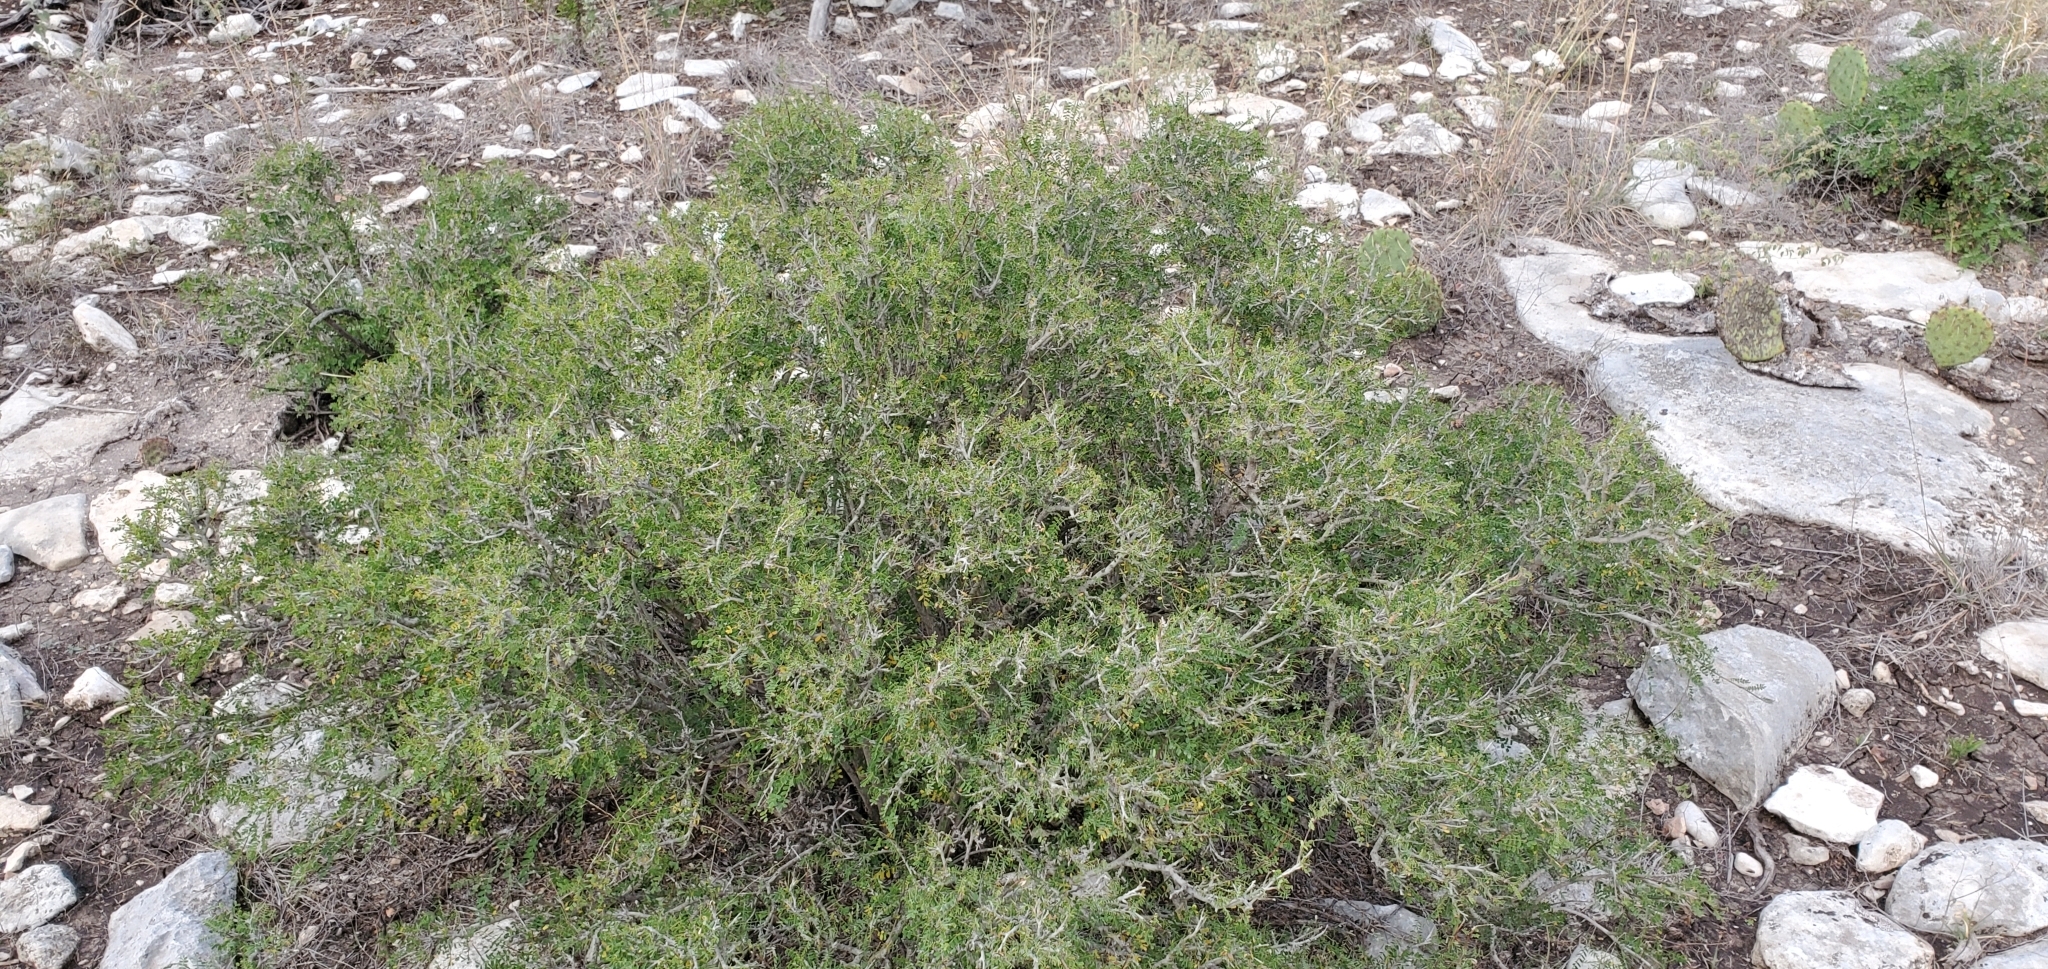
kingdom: Plantae
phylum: Tracheophyta
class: Magnoliopsida
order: Fabales
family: Fabaceae
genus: Eysenhardtia
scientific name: Eysenhardtia texana
